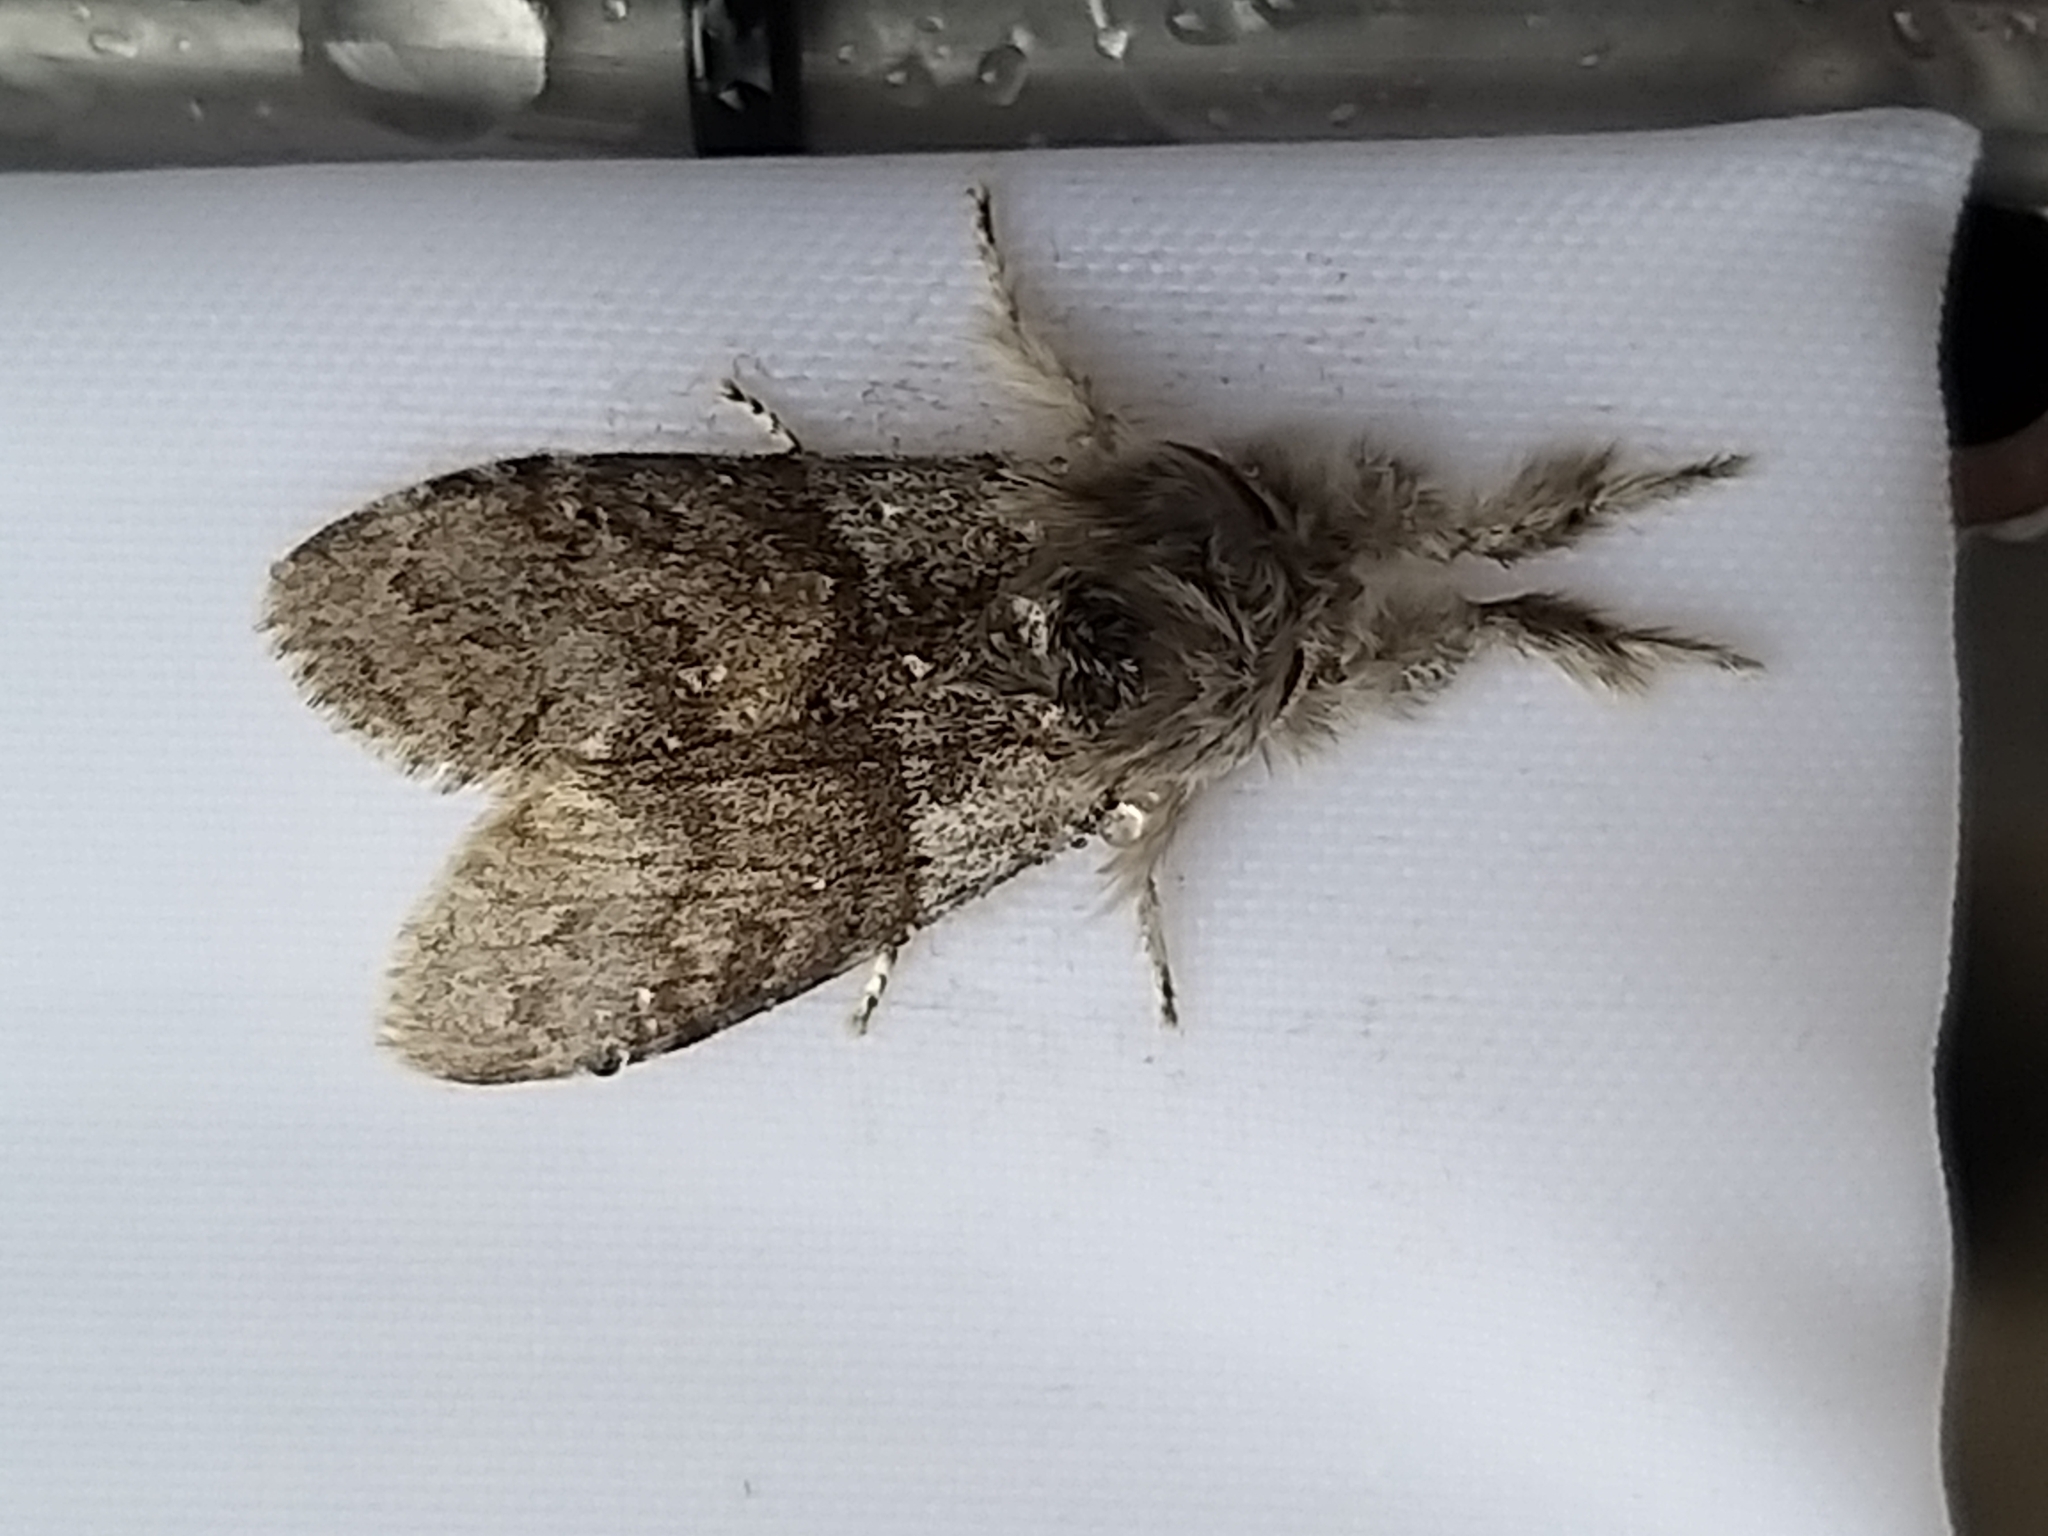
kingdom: Animalia
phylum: Arthropoda
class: Insecta
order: Lepidoptera
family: Erebidae
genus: Calliteara
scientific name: Calliteara pudibunda
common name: Pale tussock
